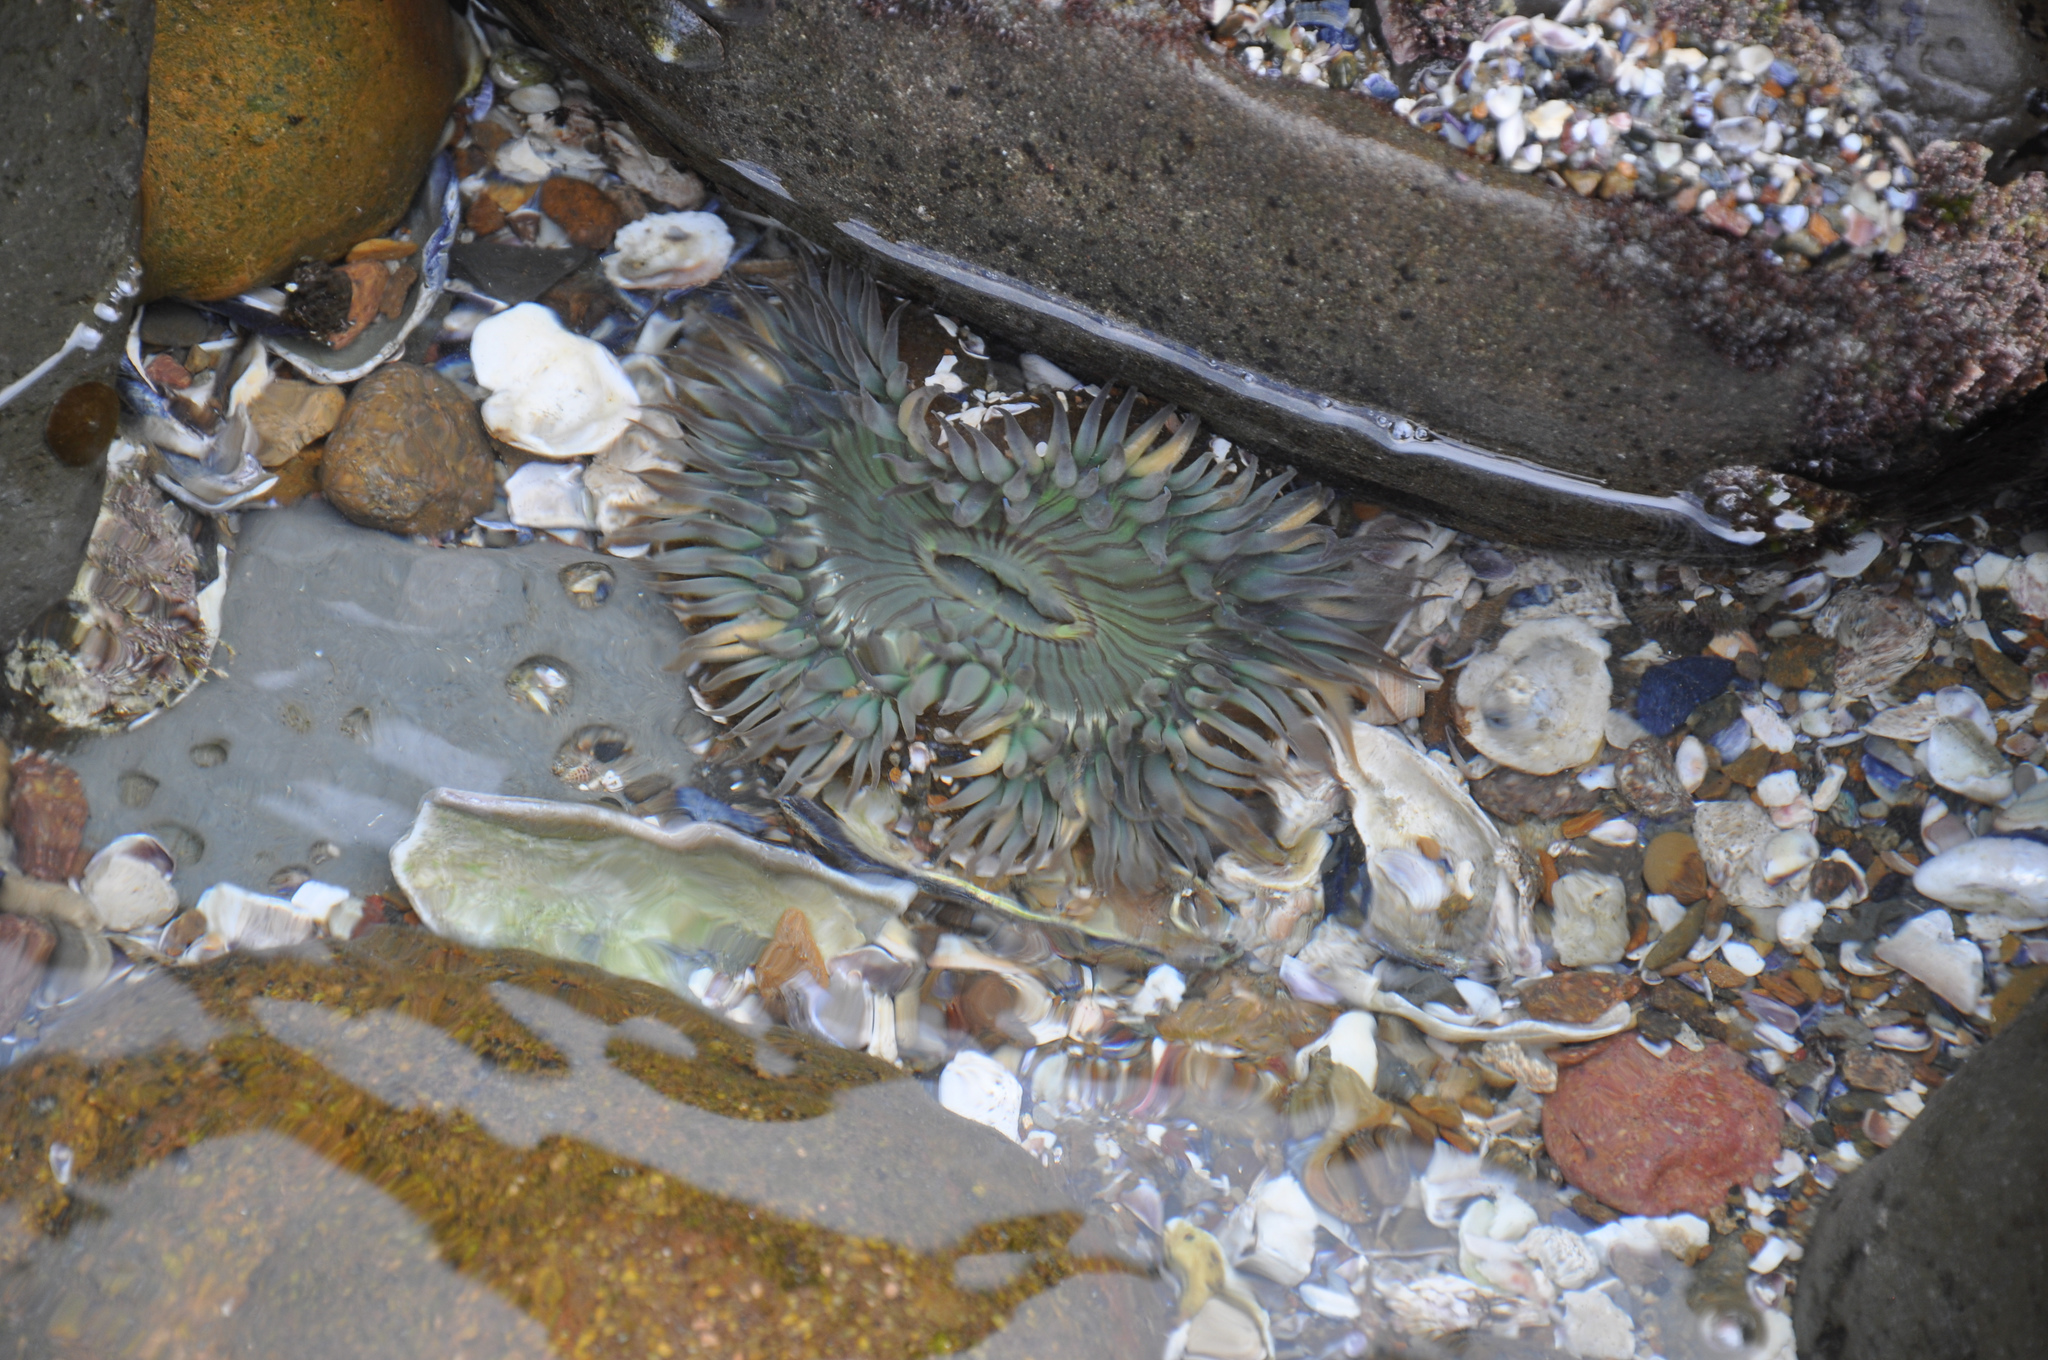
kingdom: Animalia
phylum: Cnidaria
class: Anthozoa
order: Actiniaria
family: Actiniidae
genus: Anthopleura
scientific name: Anthopleura sola
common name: Sun anemone
